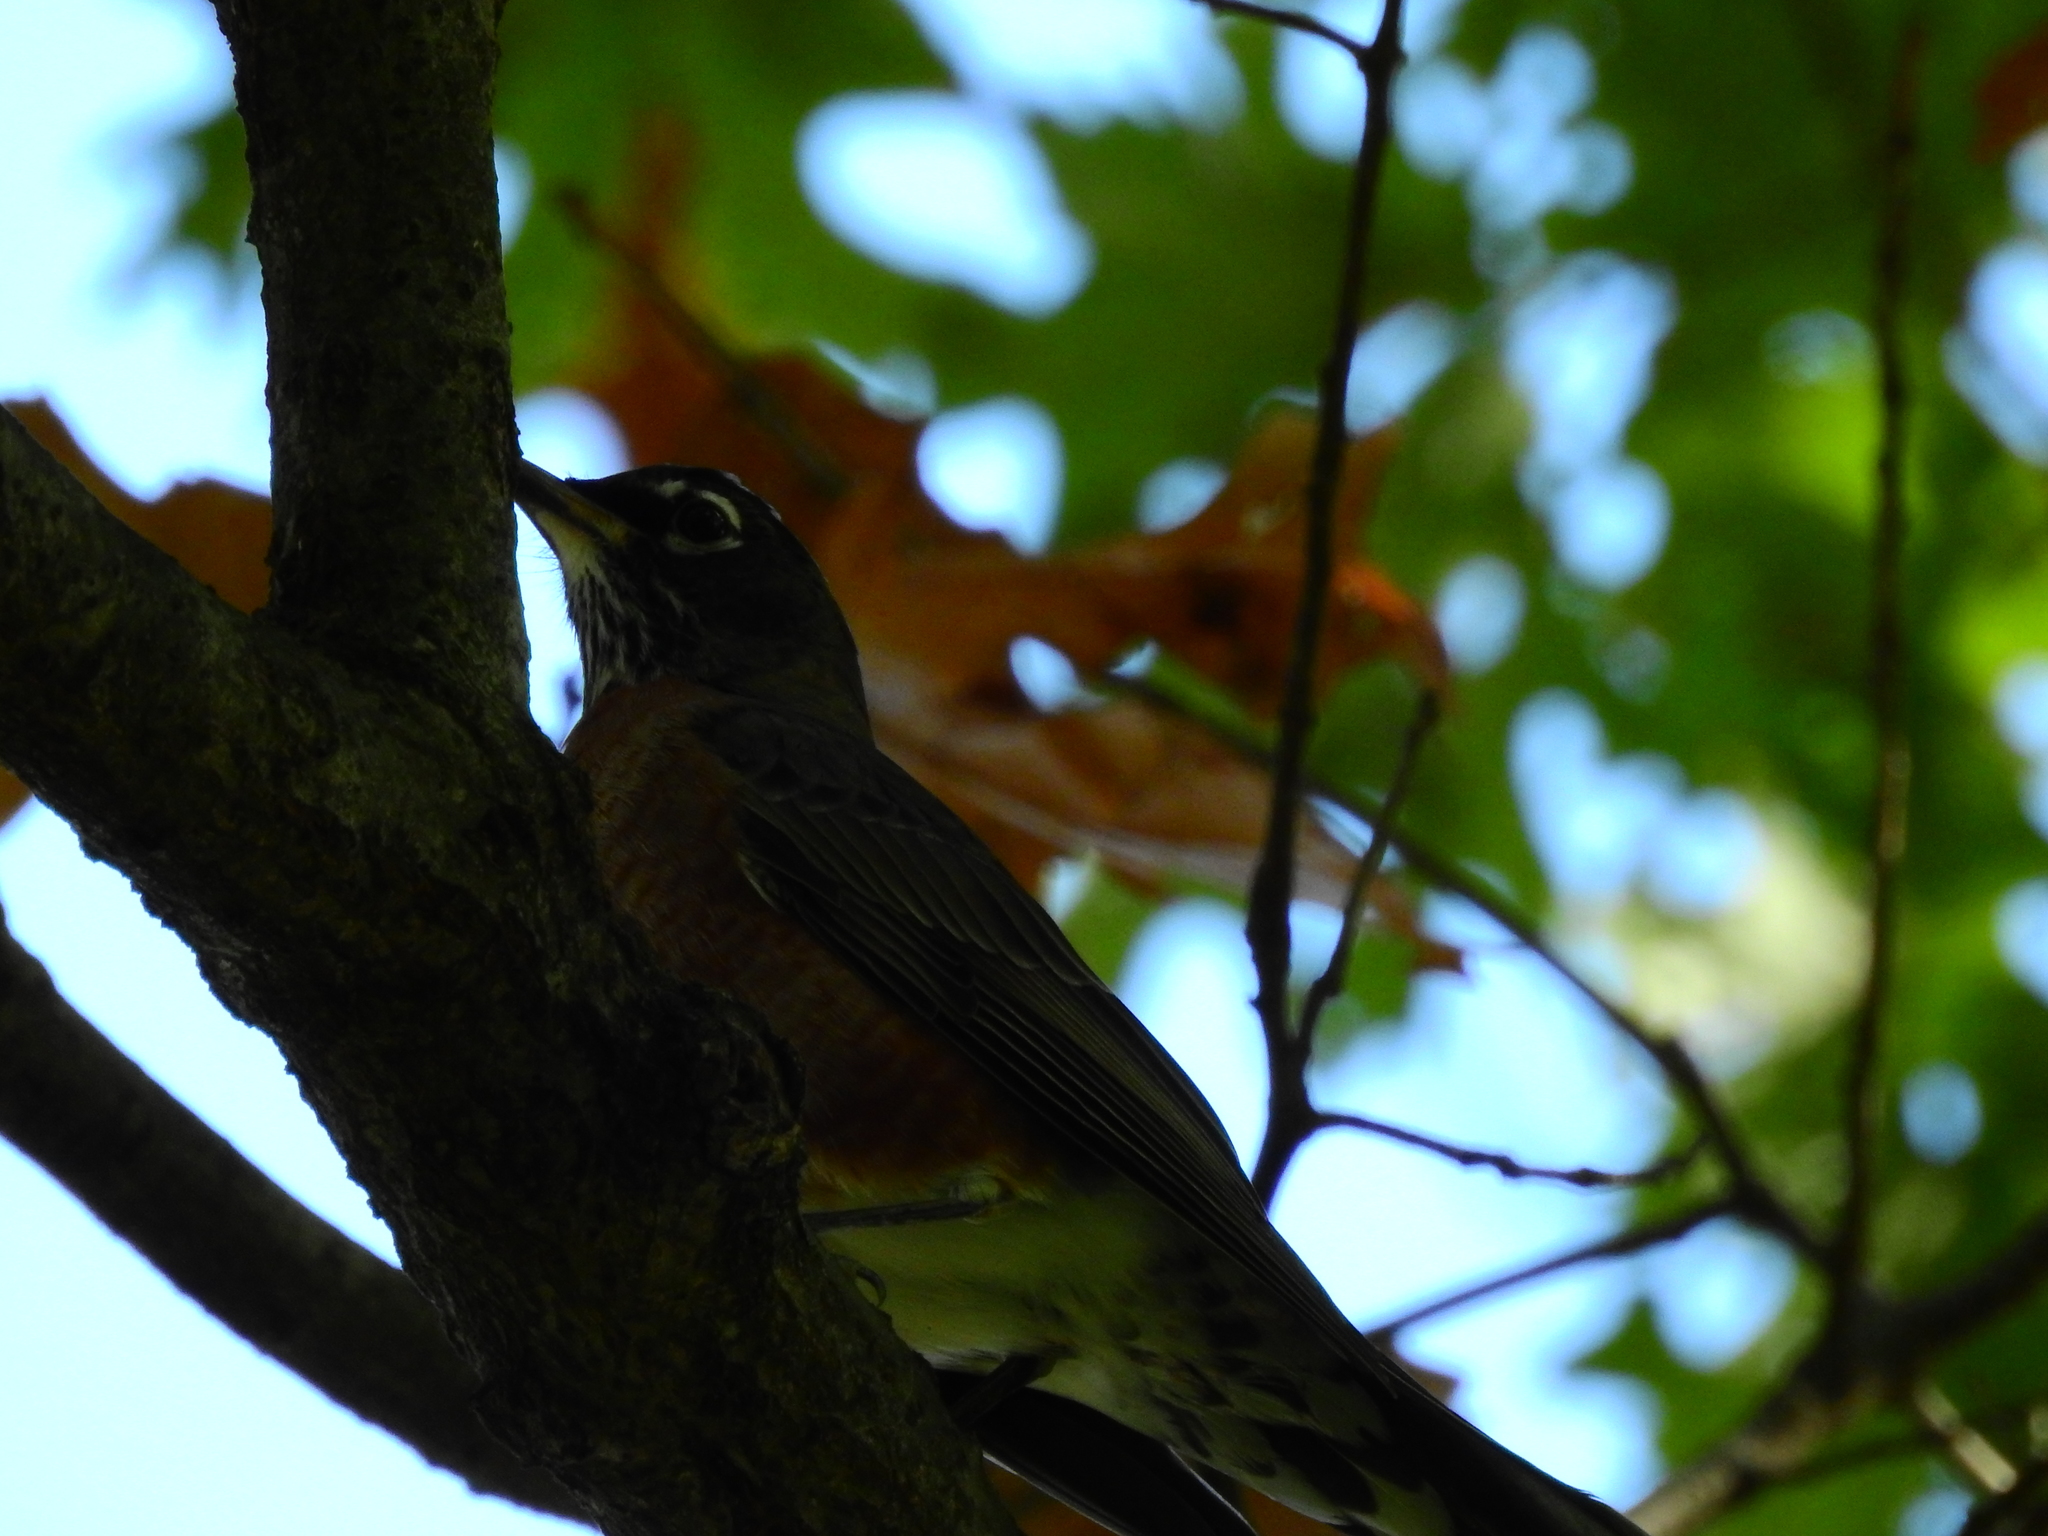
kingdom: Animalia
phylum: Chordata
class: Aves
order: Passeriformes
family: Turdidae
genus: Turdus
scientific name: Turdus migratorius
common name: American robin
